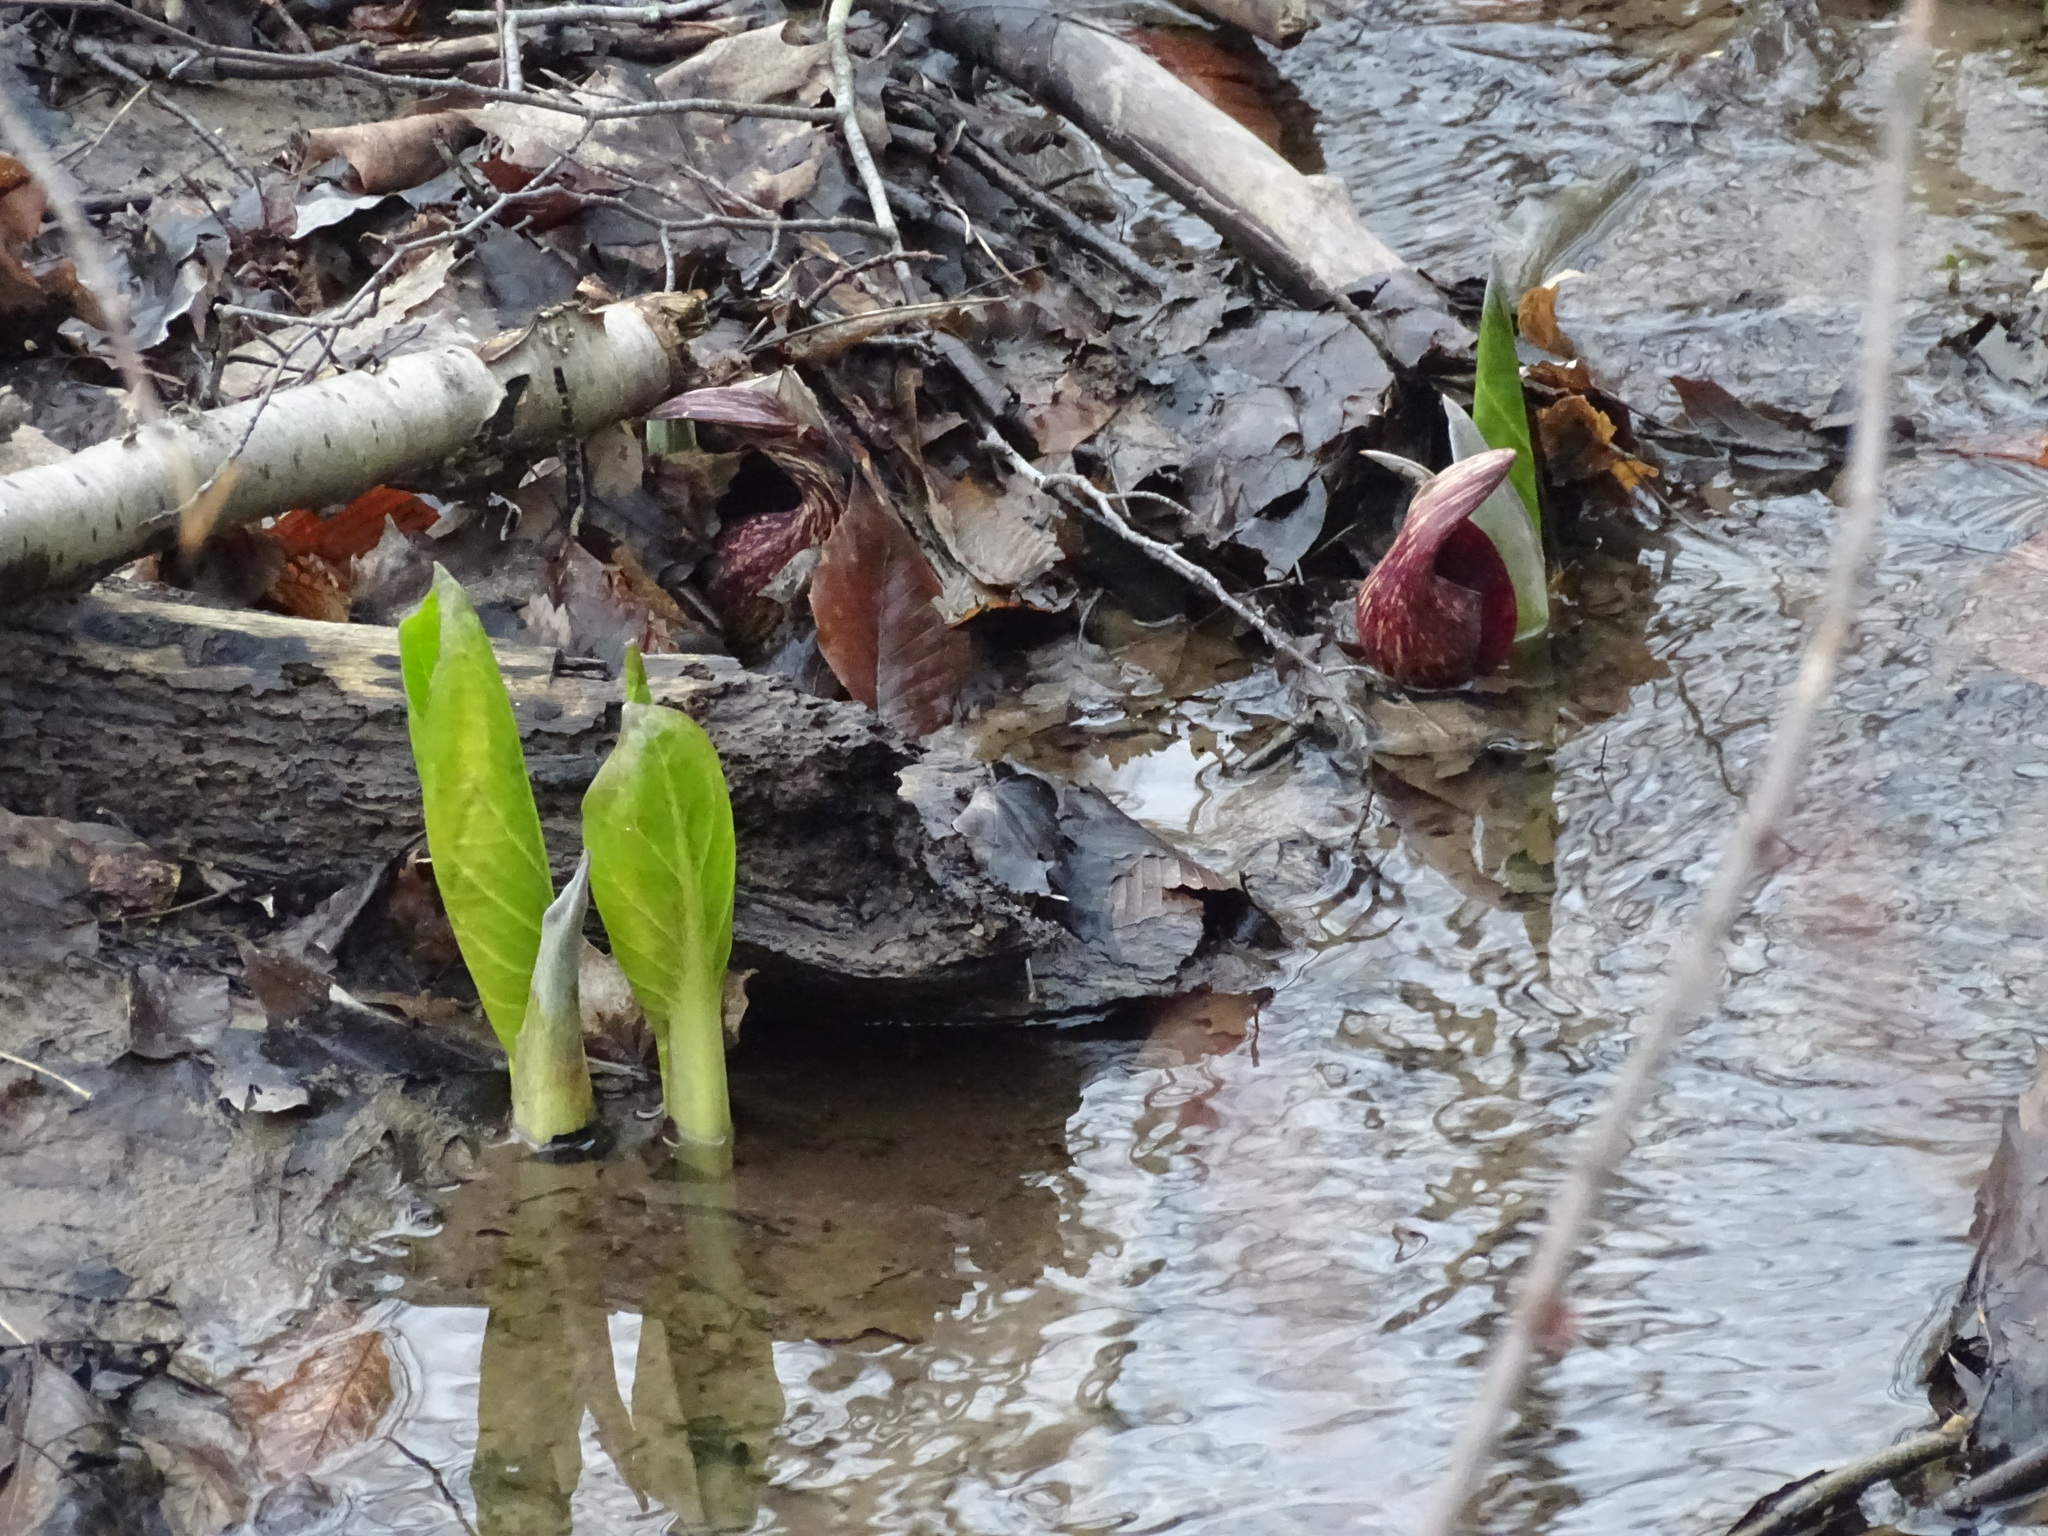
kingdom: Plantae
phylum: Tracheophyta
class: Liliopsida
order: Alismatales
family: Araceae
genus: Symplocarpus
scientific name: Symplocarpus foetidus
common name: Eastern skunk cabbage
